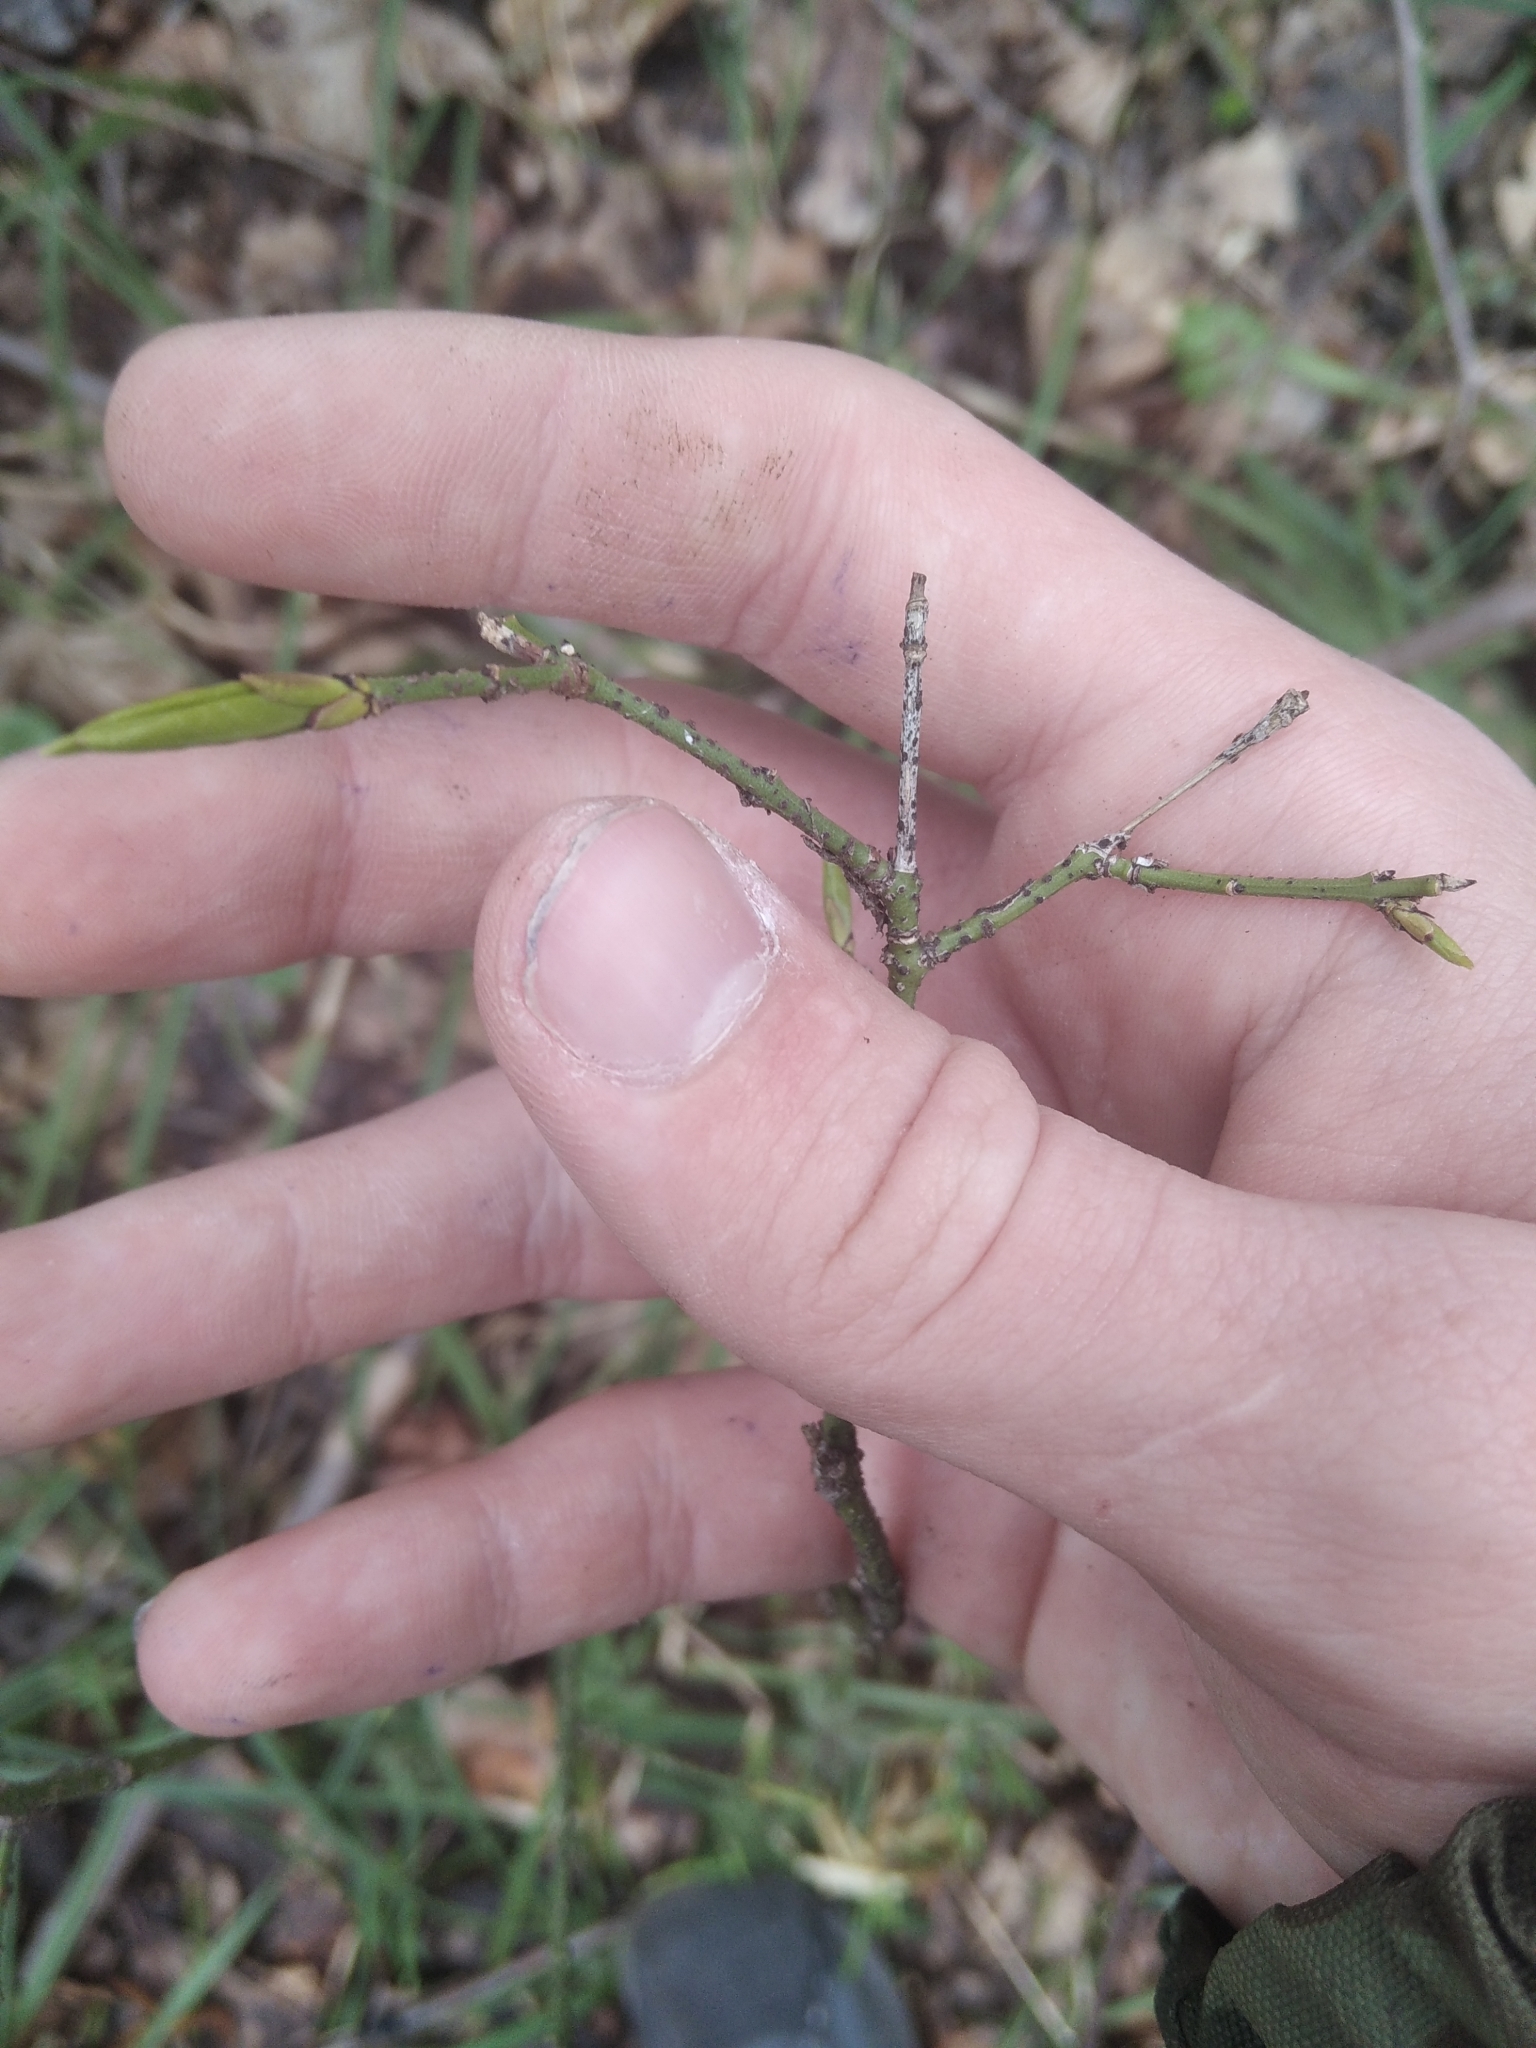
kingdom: Plantae
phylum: Tracheophyta
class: Magnoliopsida
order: Celastrales
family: Celastraceae
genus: Euonymus
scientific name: Euonymus verrucosus
